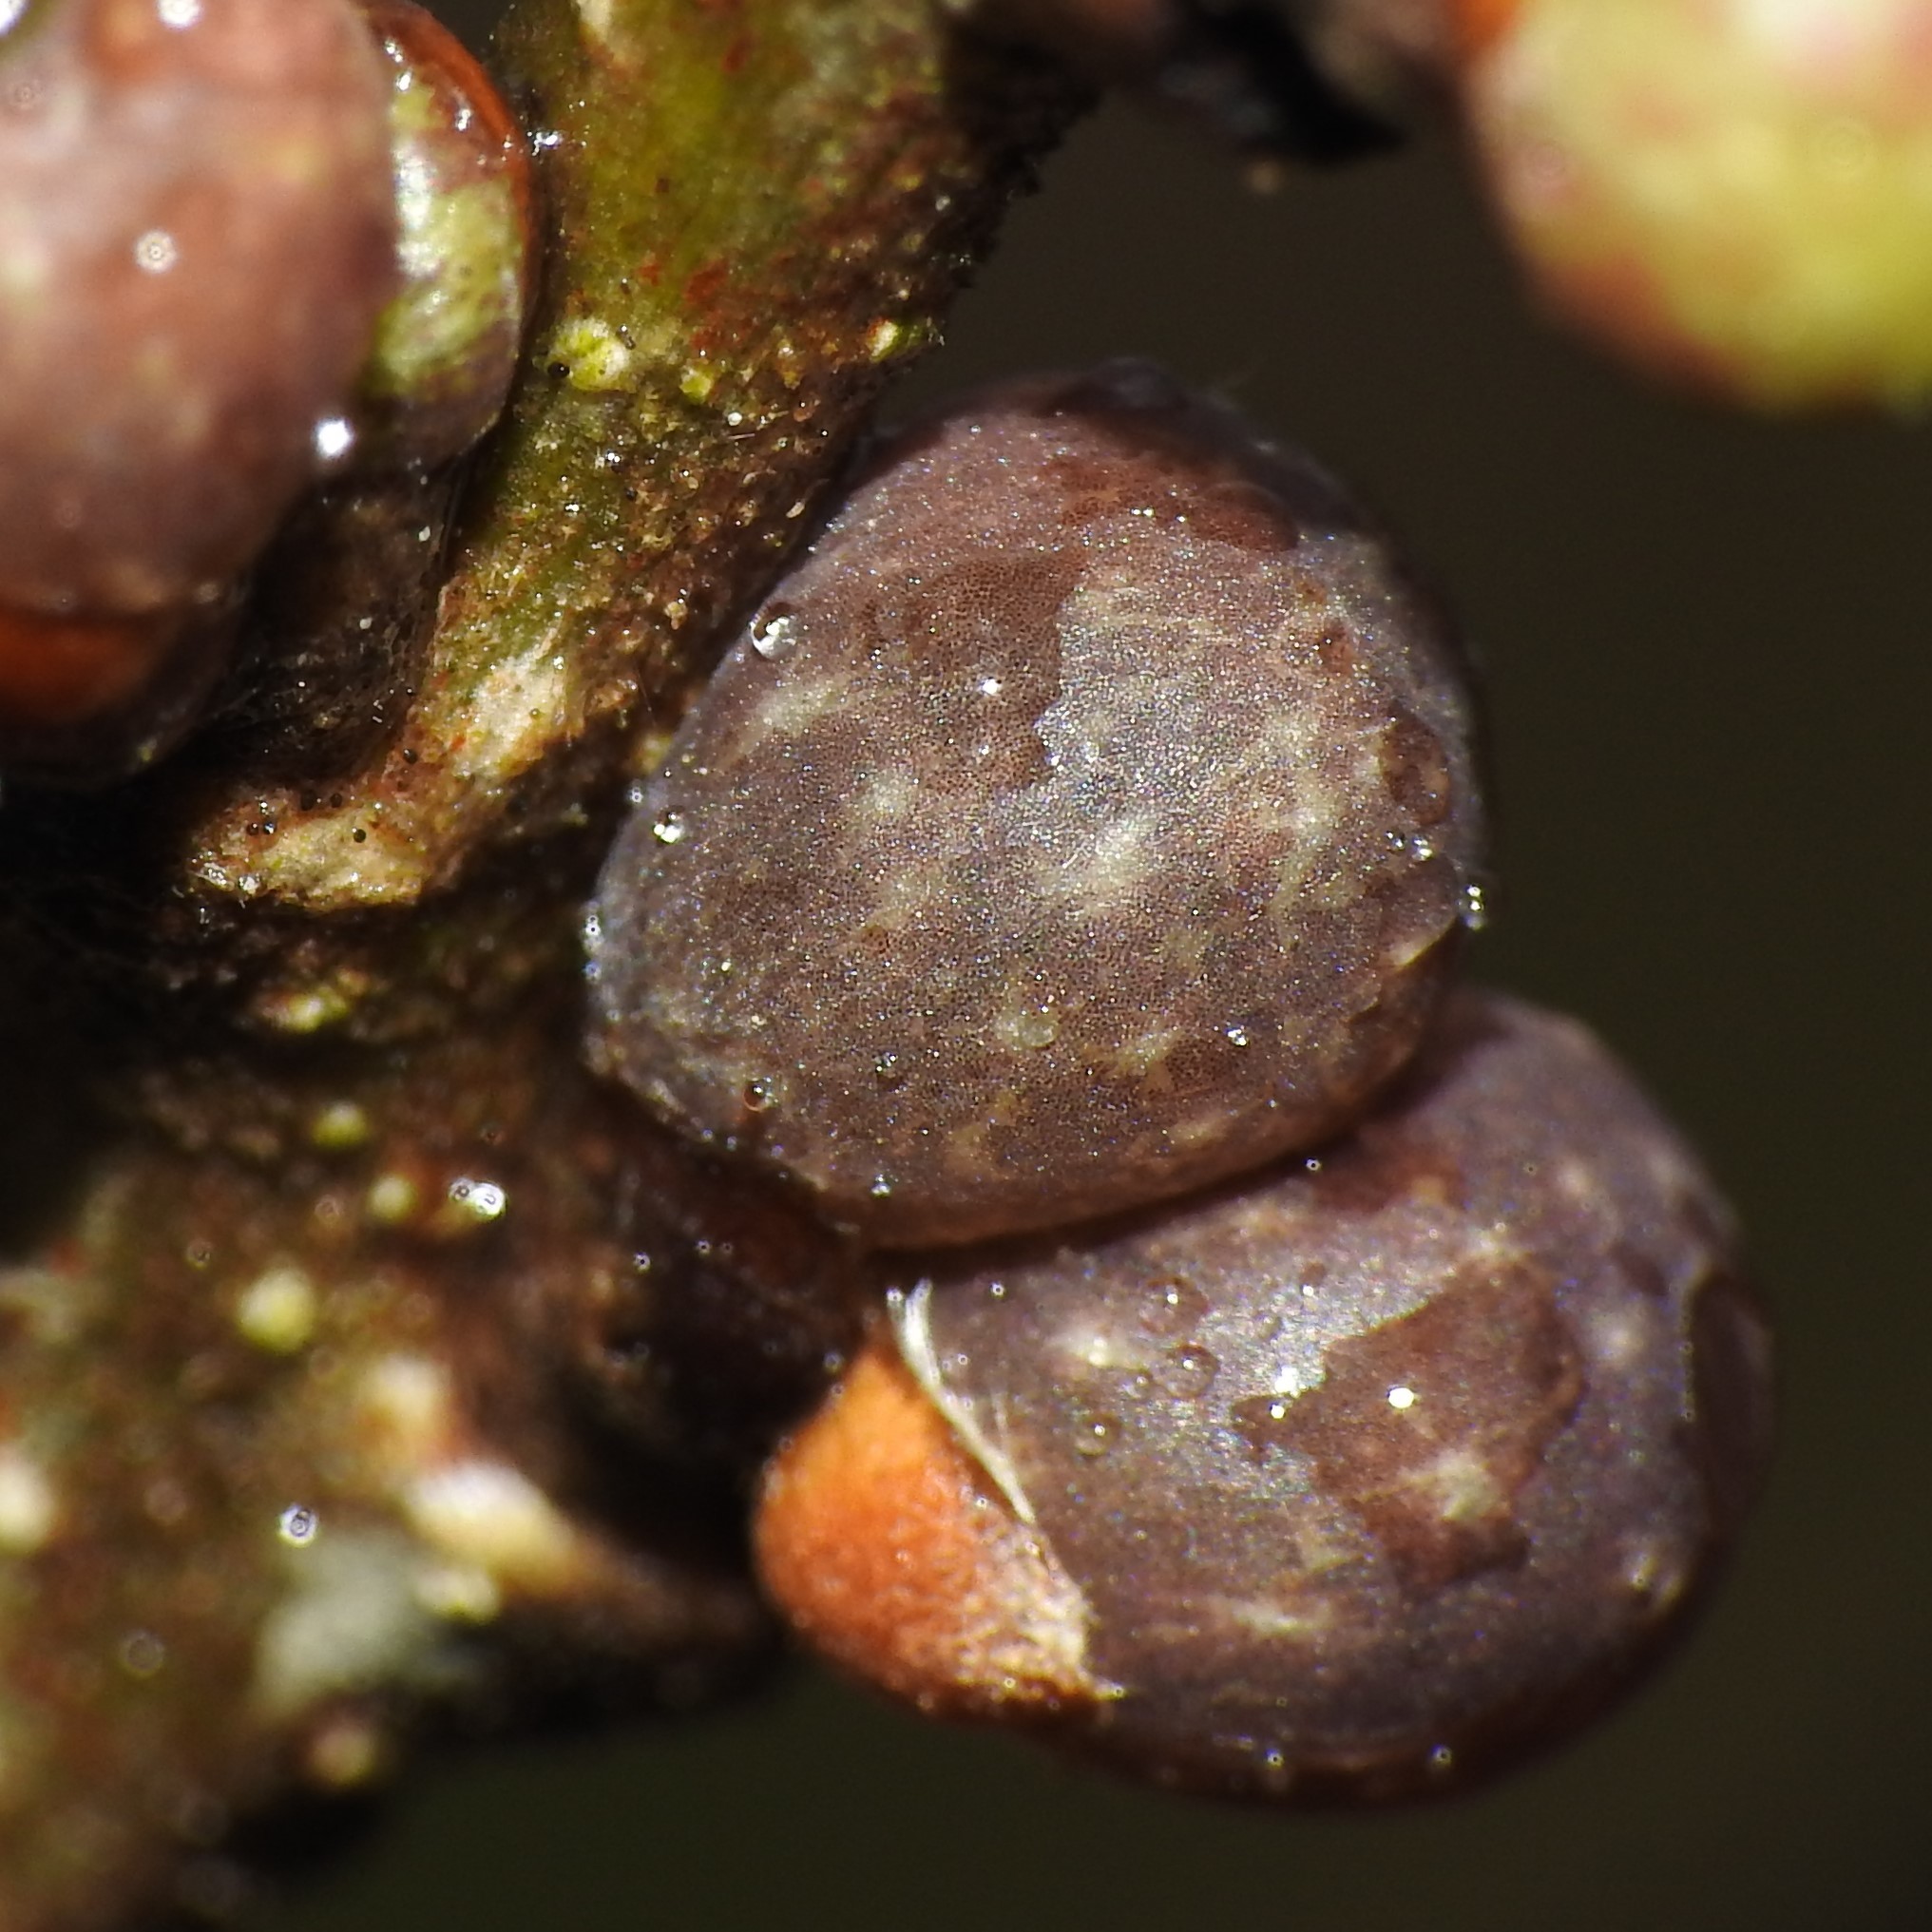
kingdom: Animalia
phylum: Arthropoda
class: Insecta
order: Hymenoptera
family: Cynipidae
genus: Neuroterus
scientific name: Neuroterus
